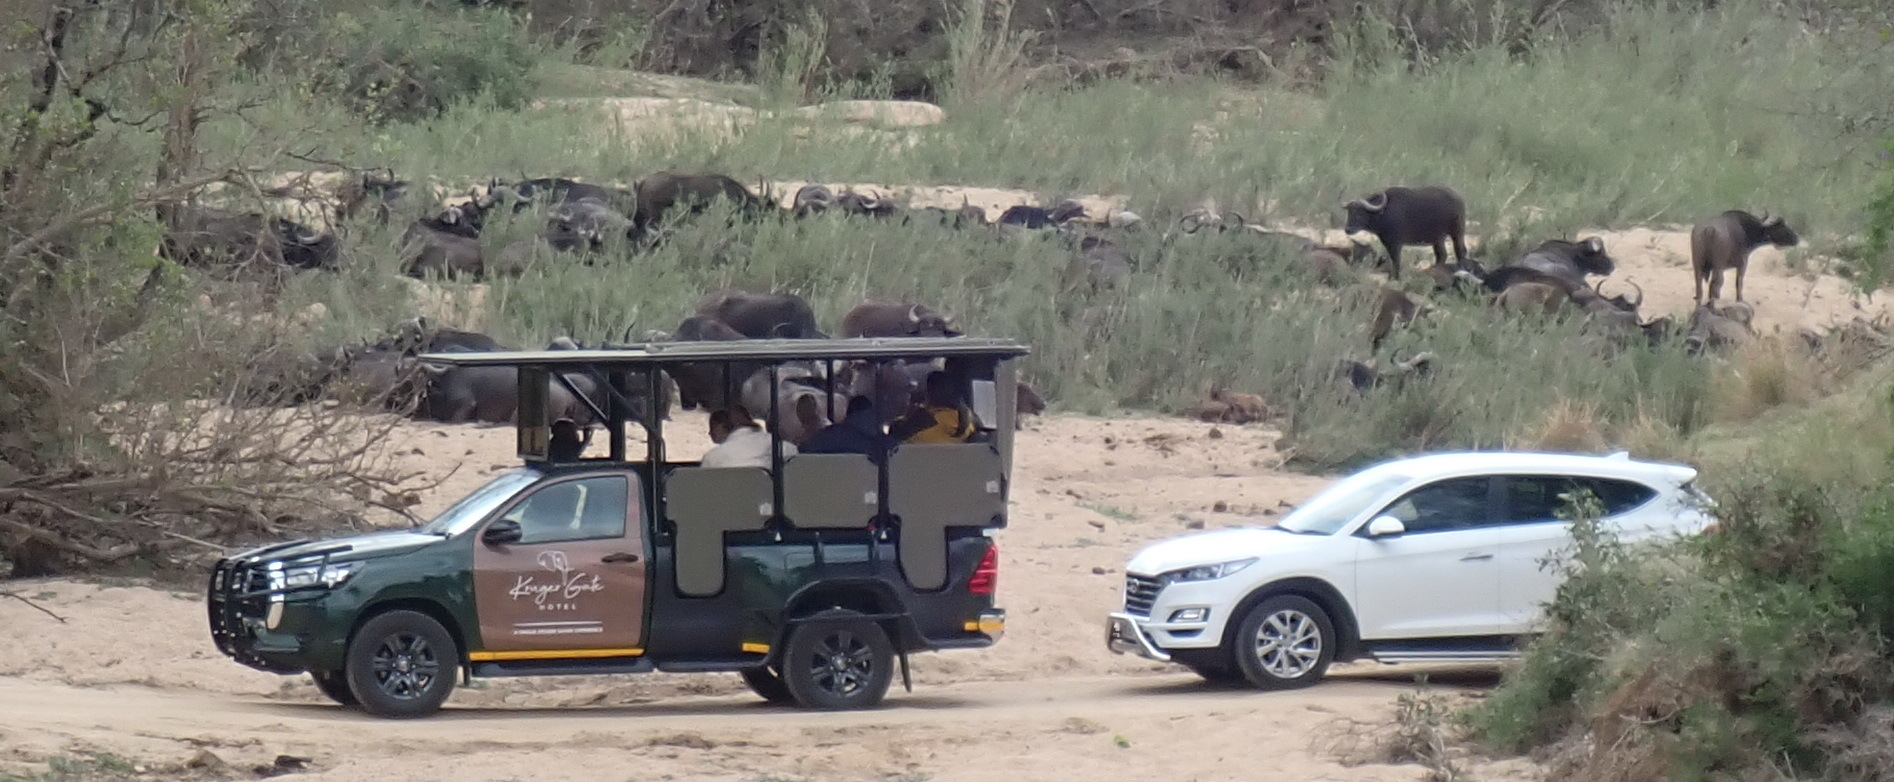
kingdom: Animalia
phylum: Chordata
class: Mammalia
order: Artiodactyla
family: Bovidae
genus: Syncerus
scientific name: Syncerus caffer
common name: African buffalo
